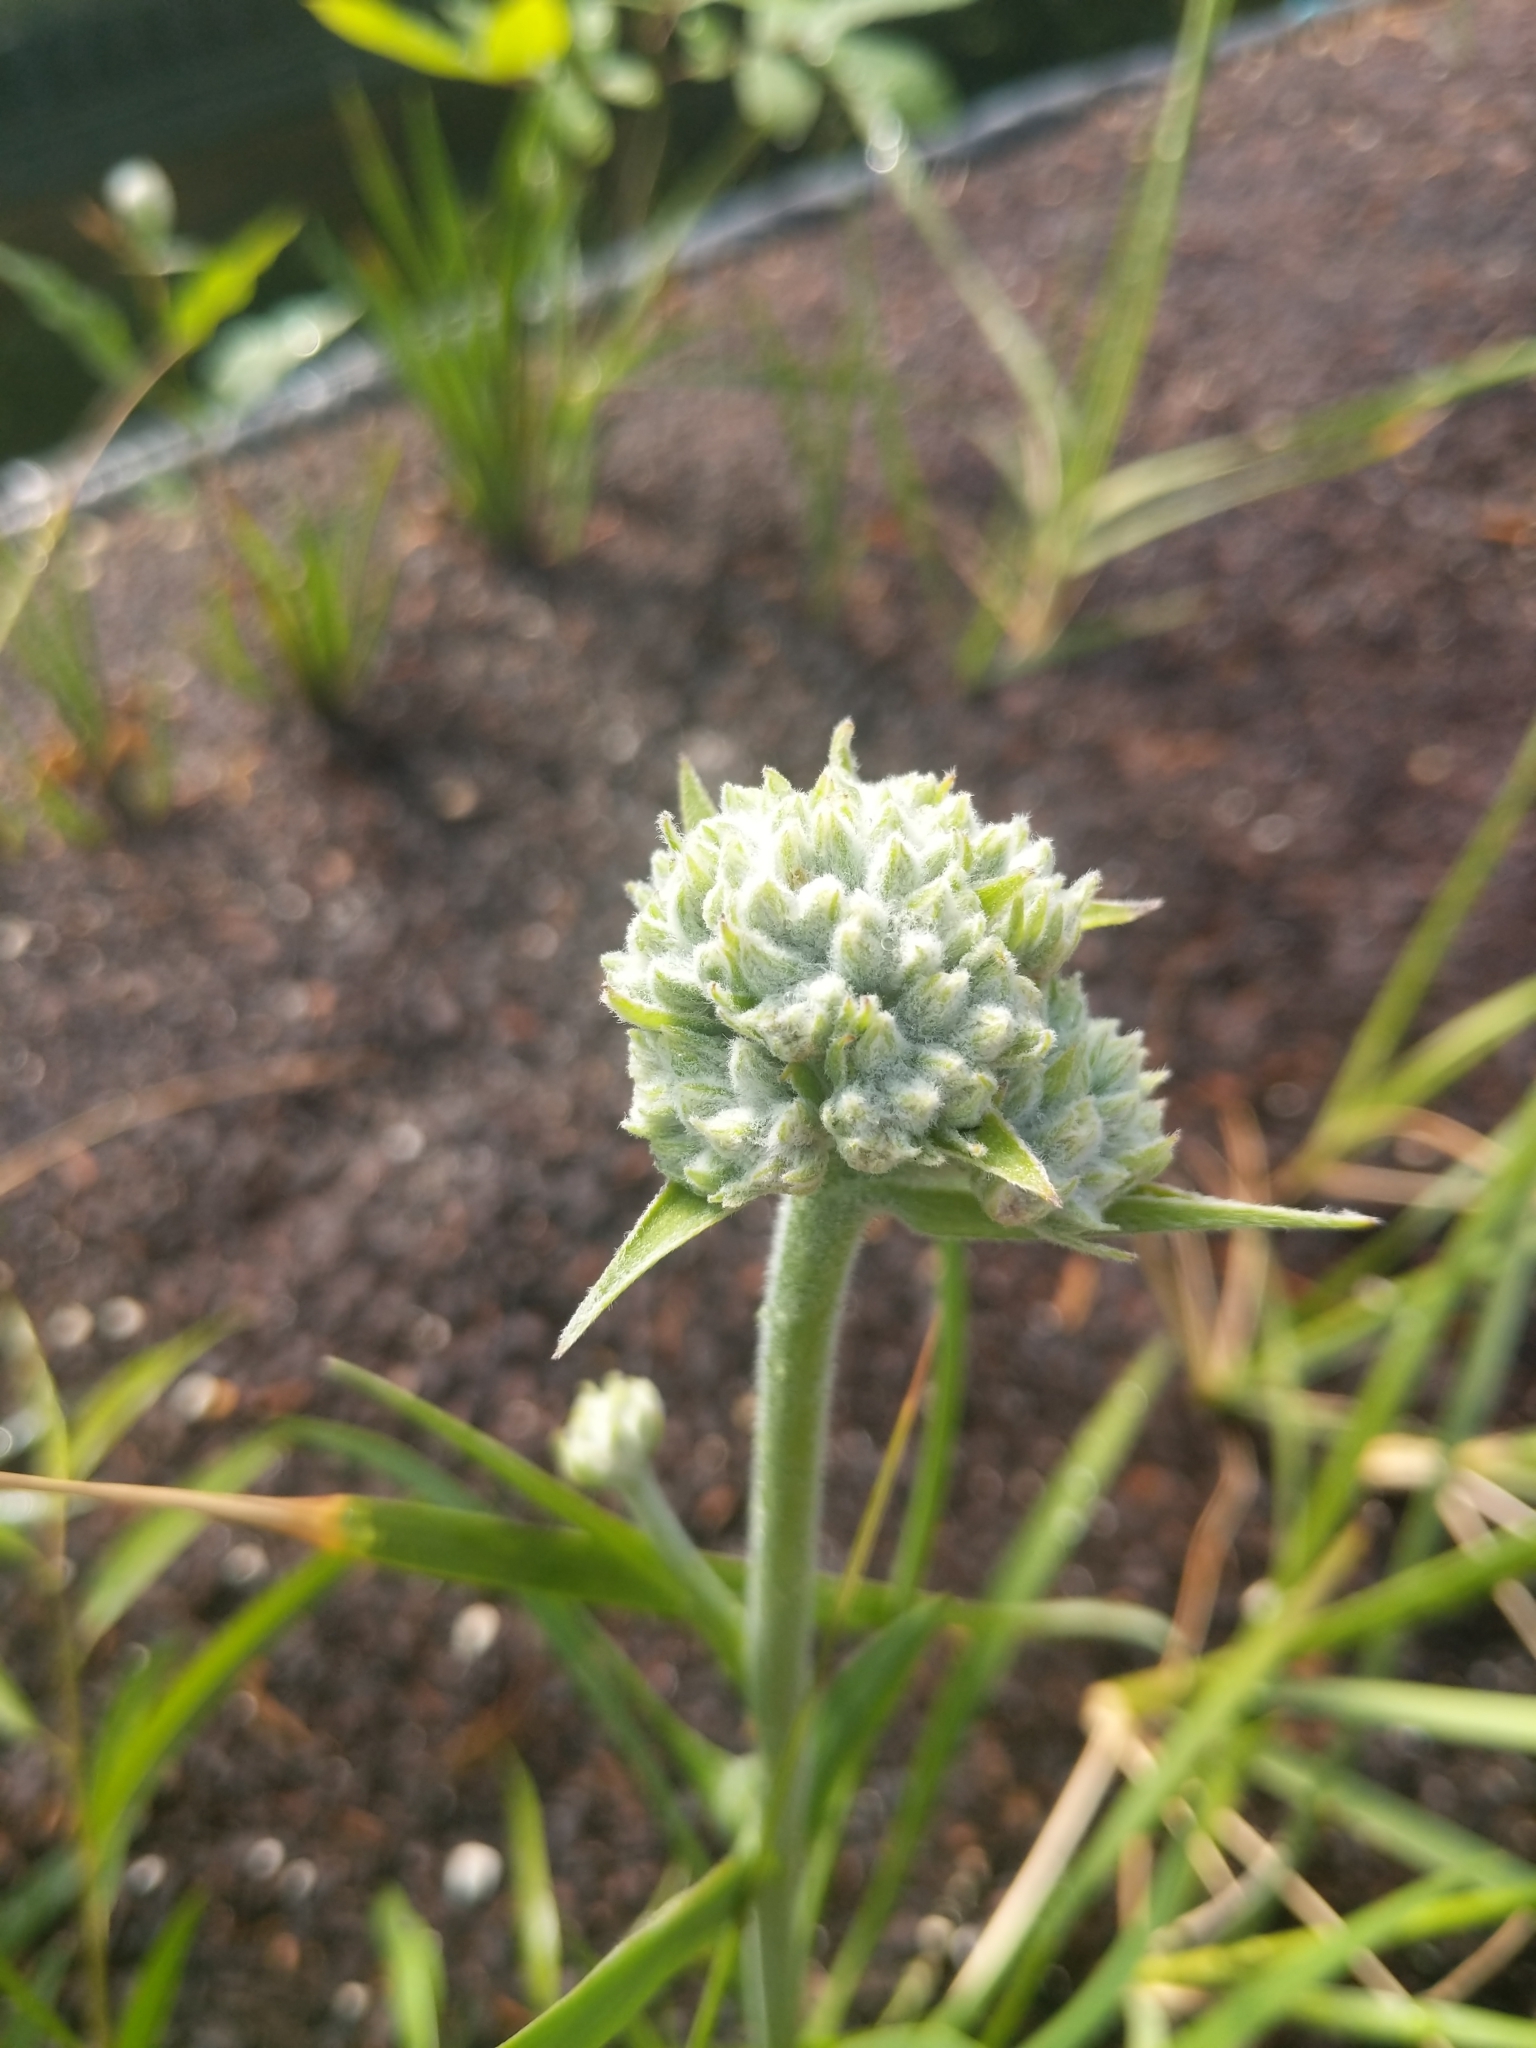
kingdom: Plantae
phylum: Tracheophyta
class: Liliopsida
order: Commelinales
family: Haemodoraceae
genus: Lachnanthes
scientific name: Lachnanthes caroliana
